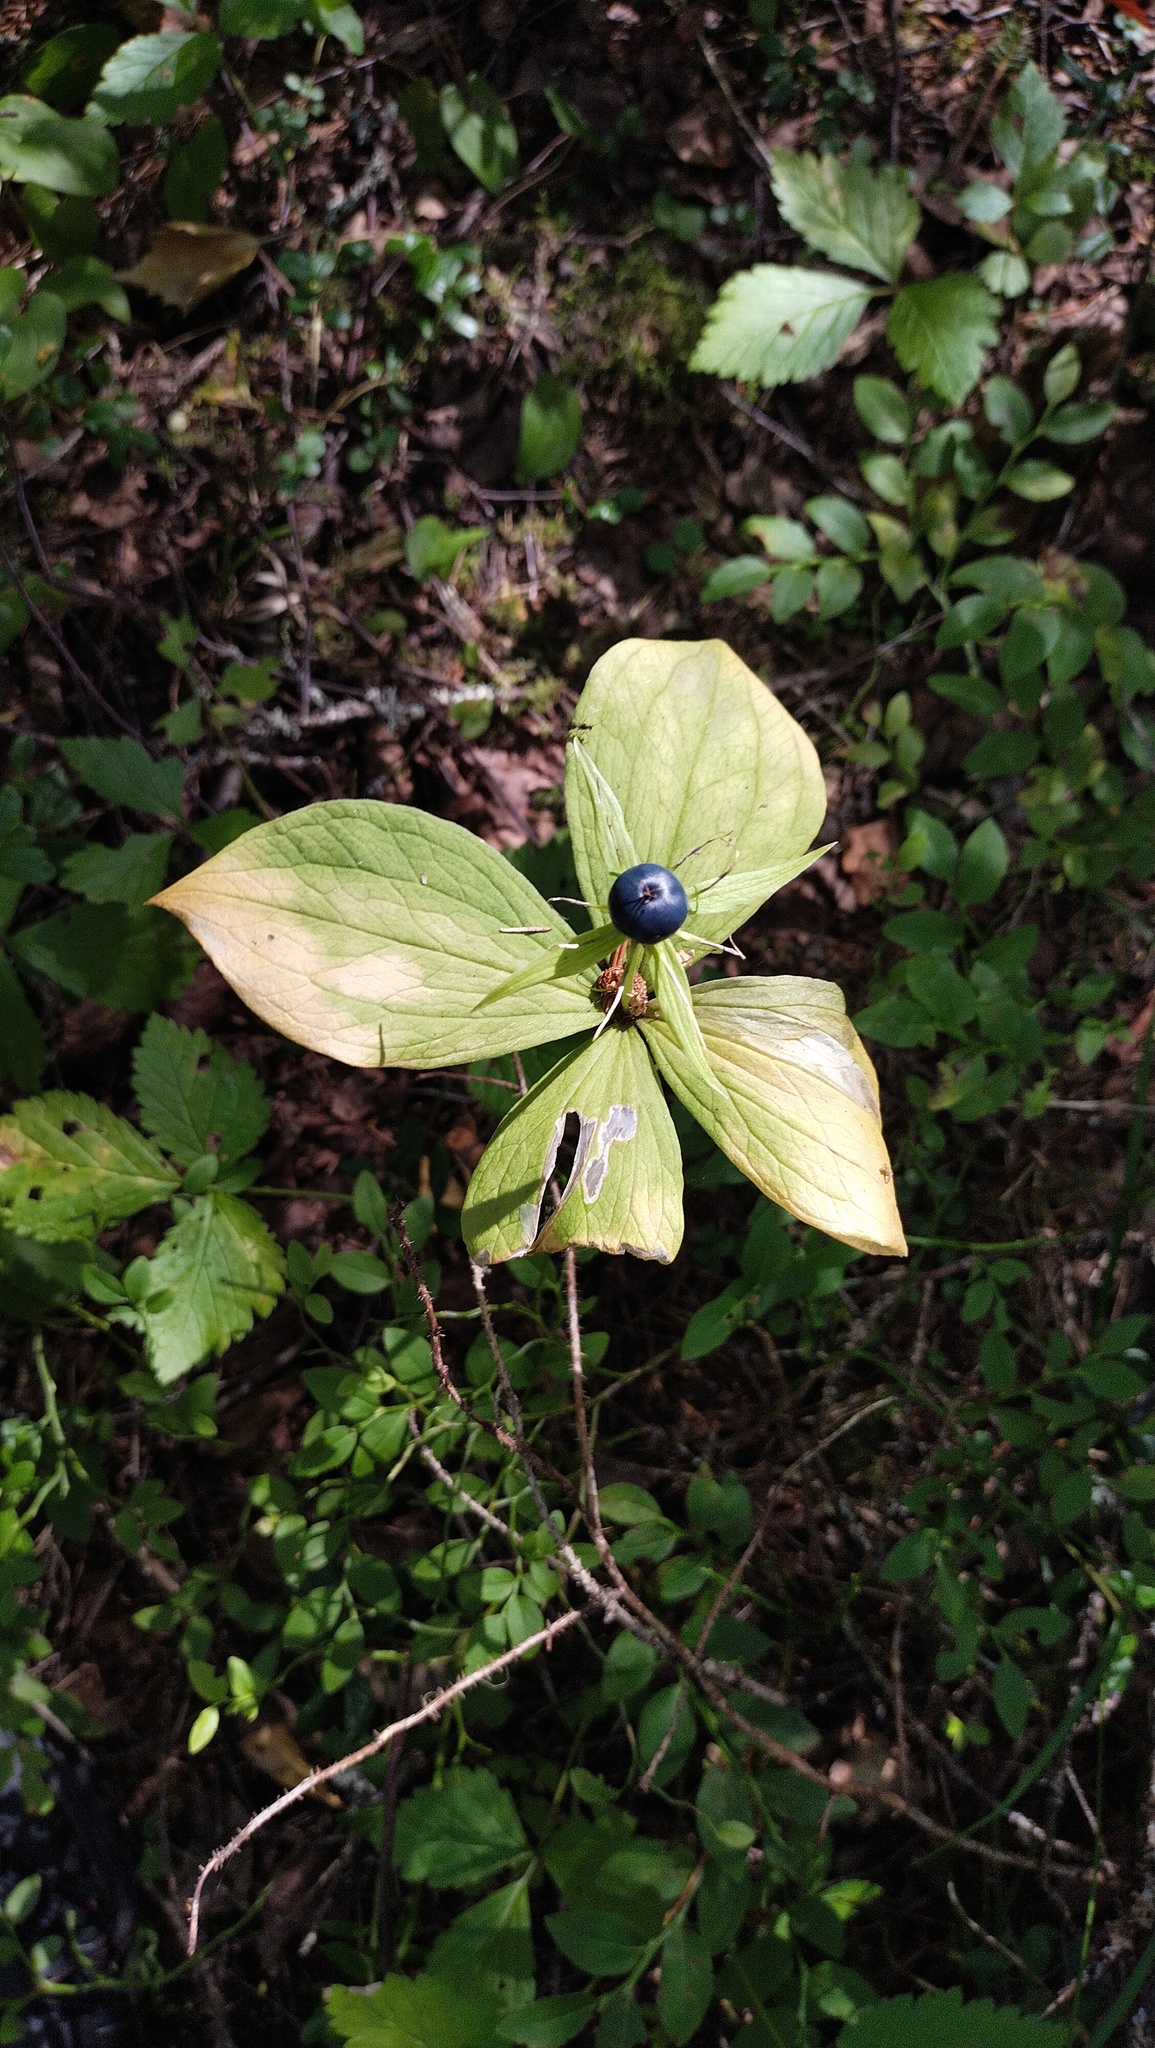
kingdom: Plantae
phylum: Tracheophyta
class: Liliopsida
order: Liliales
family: Melanthiaceae
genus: Paris
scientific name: Paris quadrifolia
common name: Herb-paris
